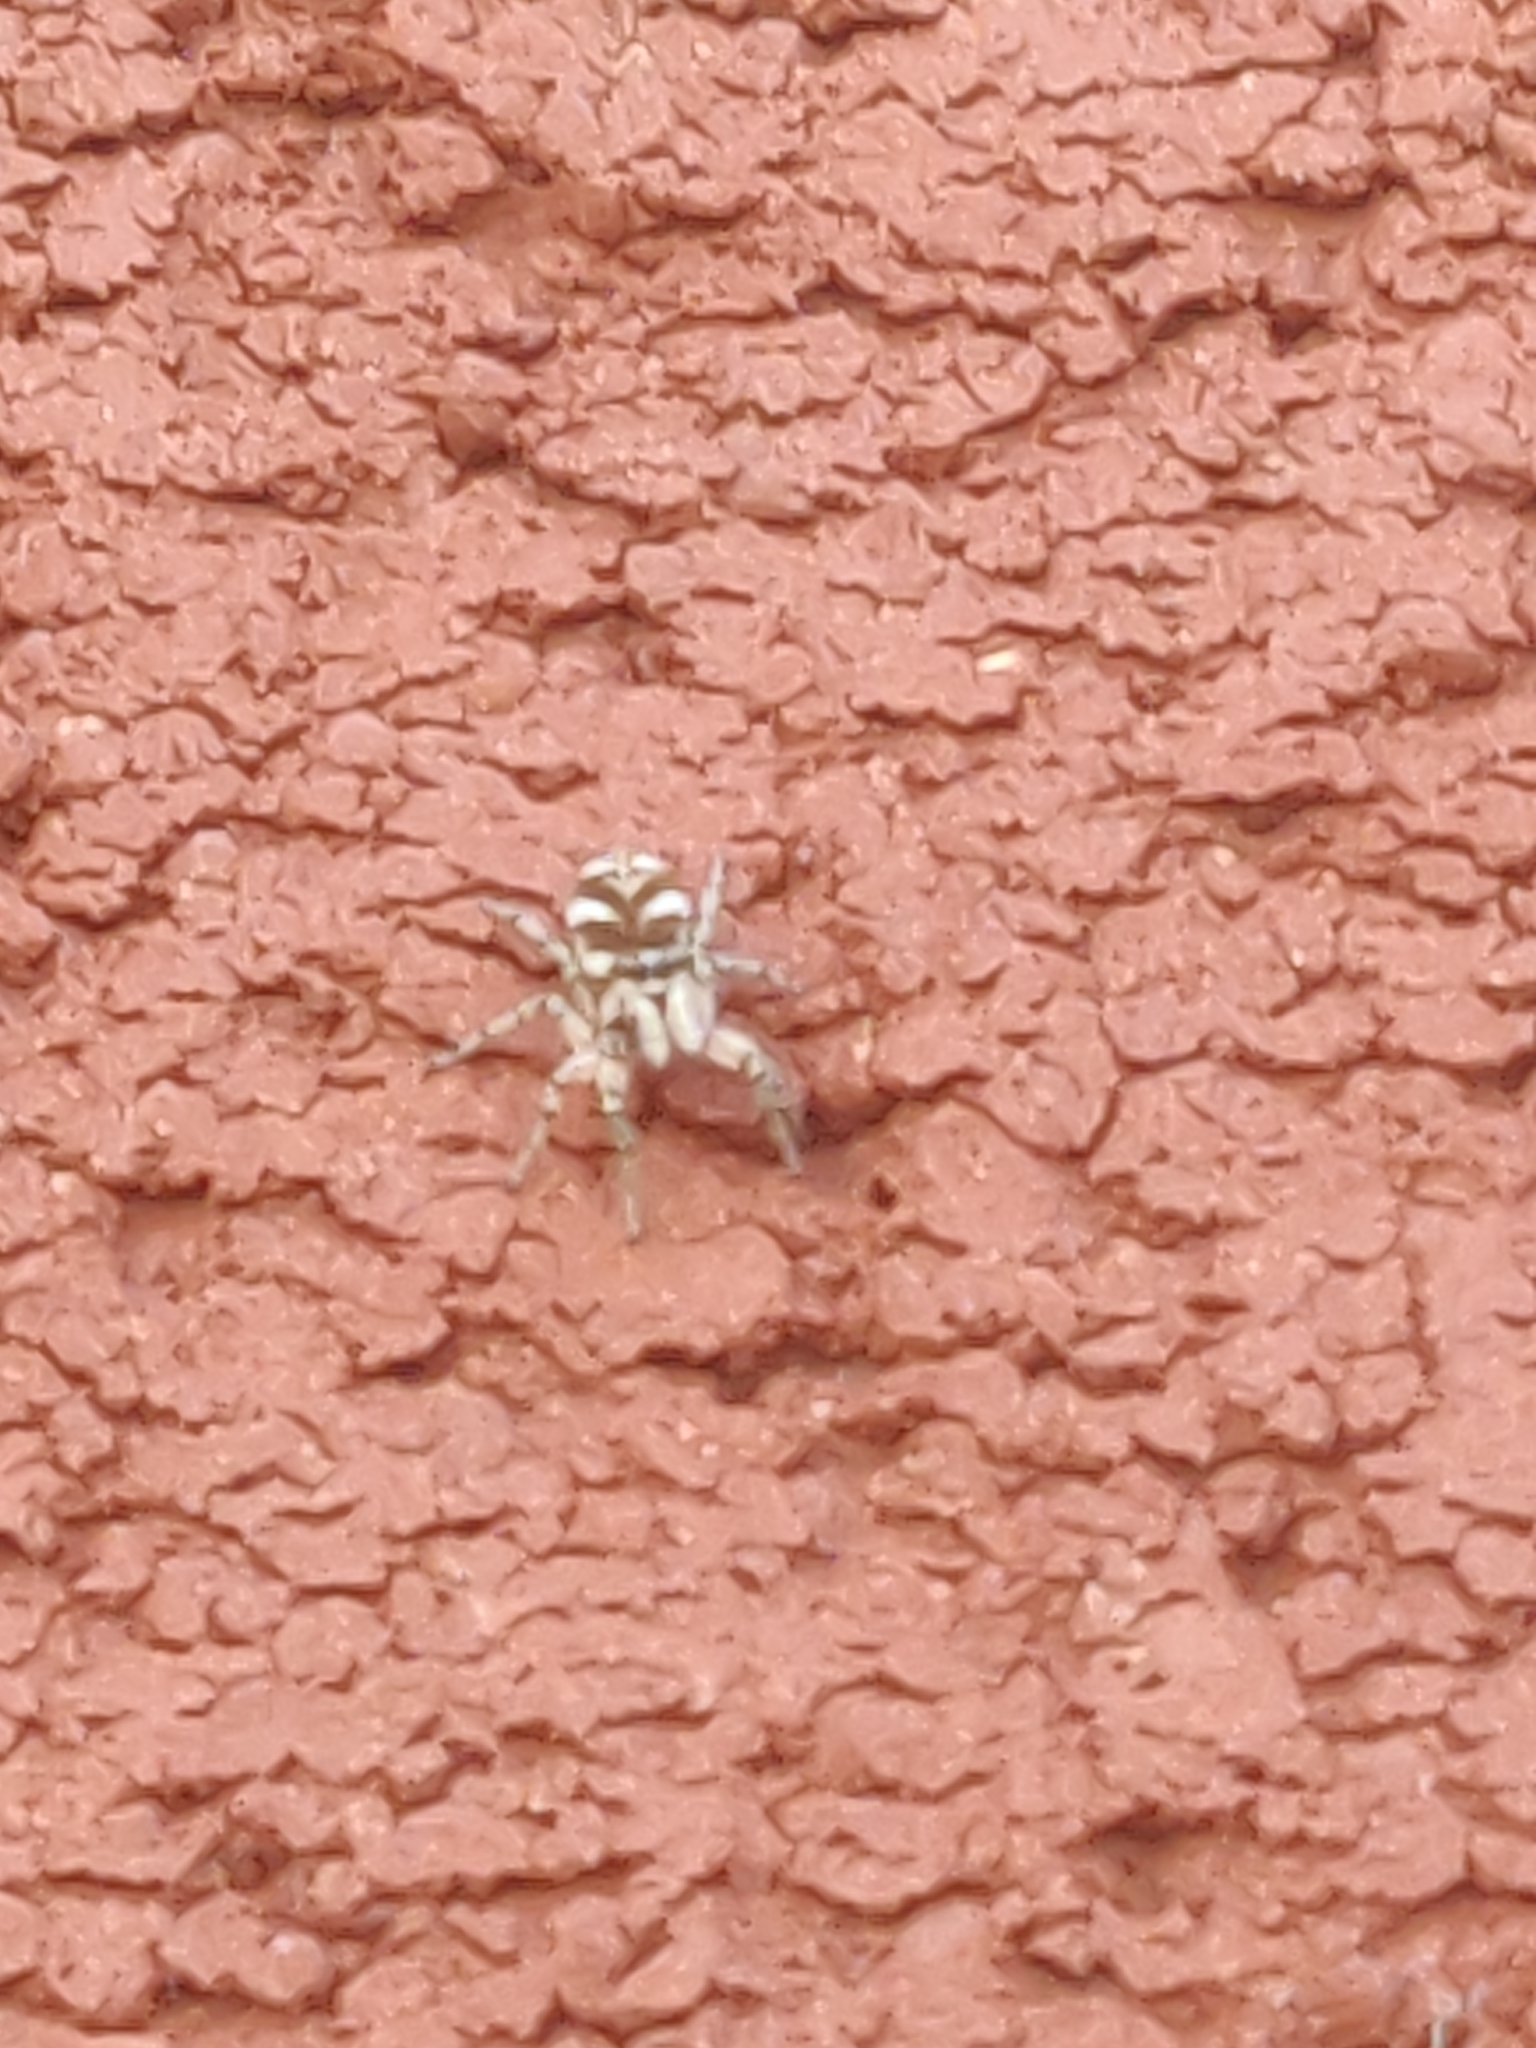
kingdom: Animalia
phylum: Arthropoda
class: Arachnida
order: Araneae
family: Salticidae
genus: Salticus
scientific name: Salticus scenicus
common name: Zebra jumper
